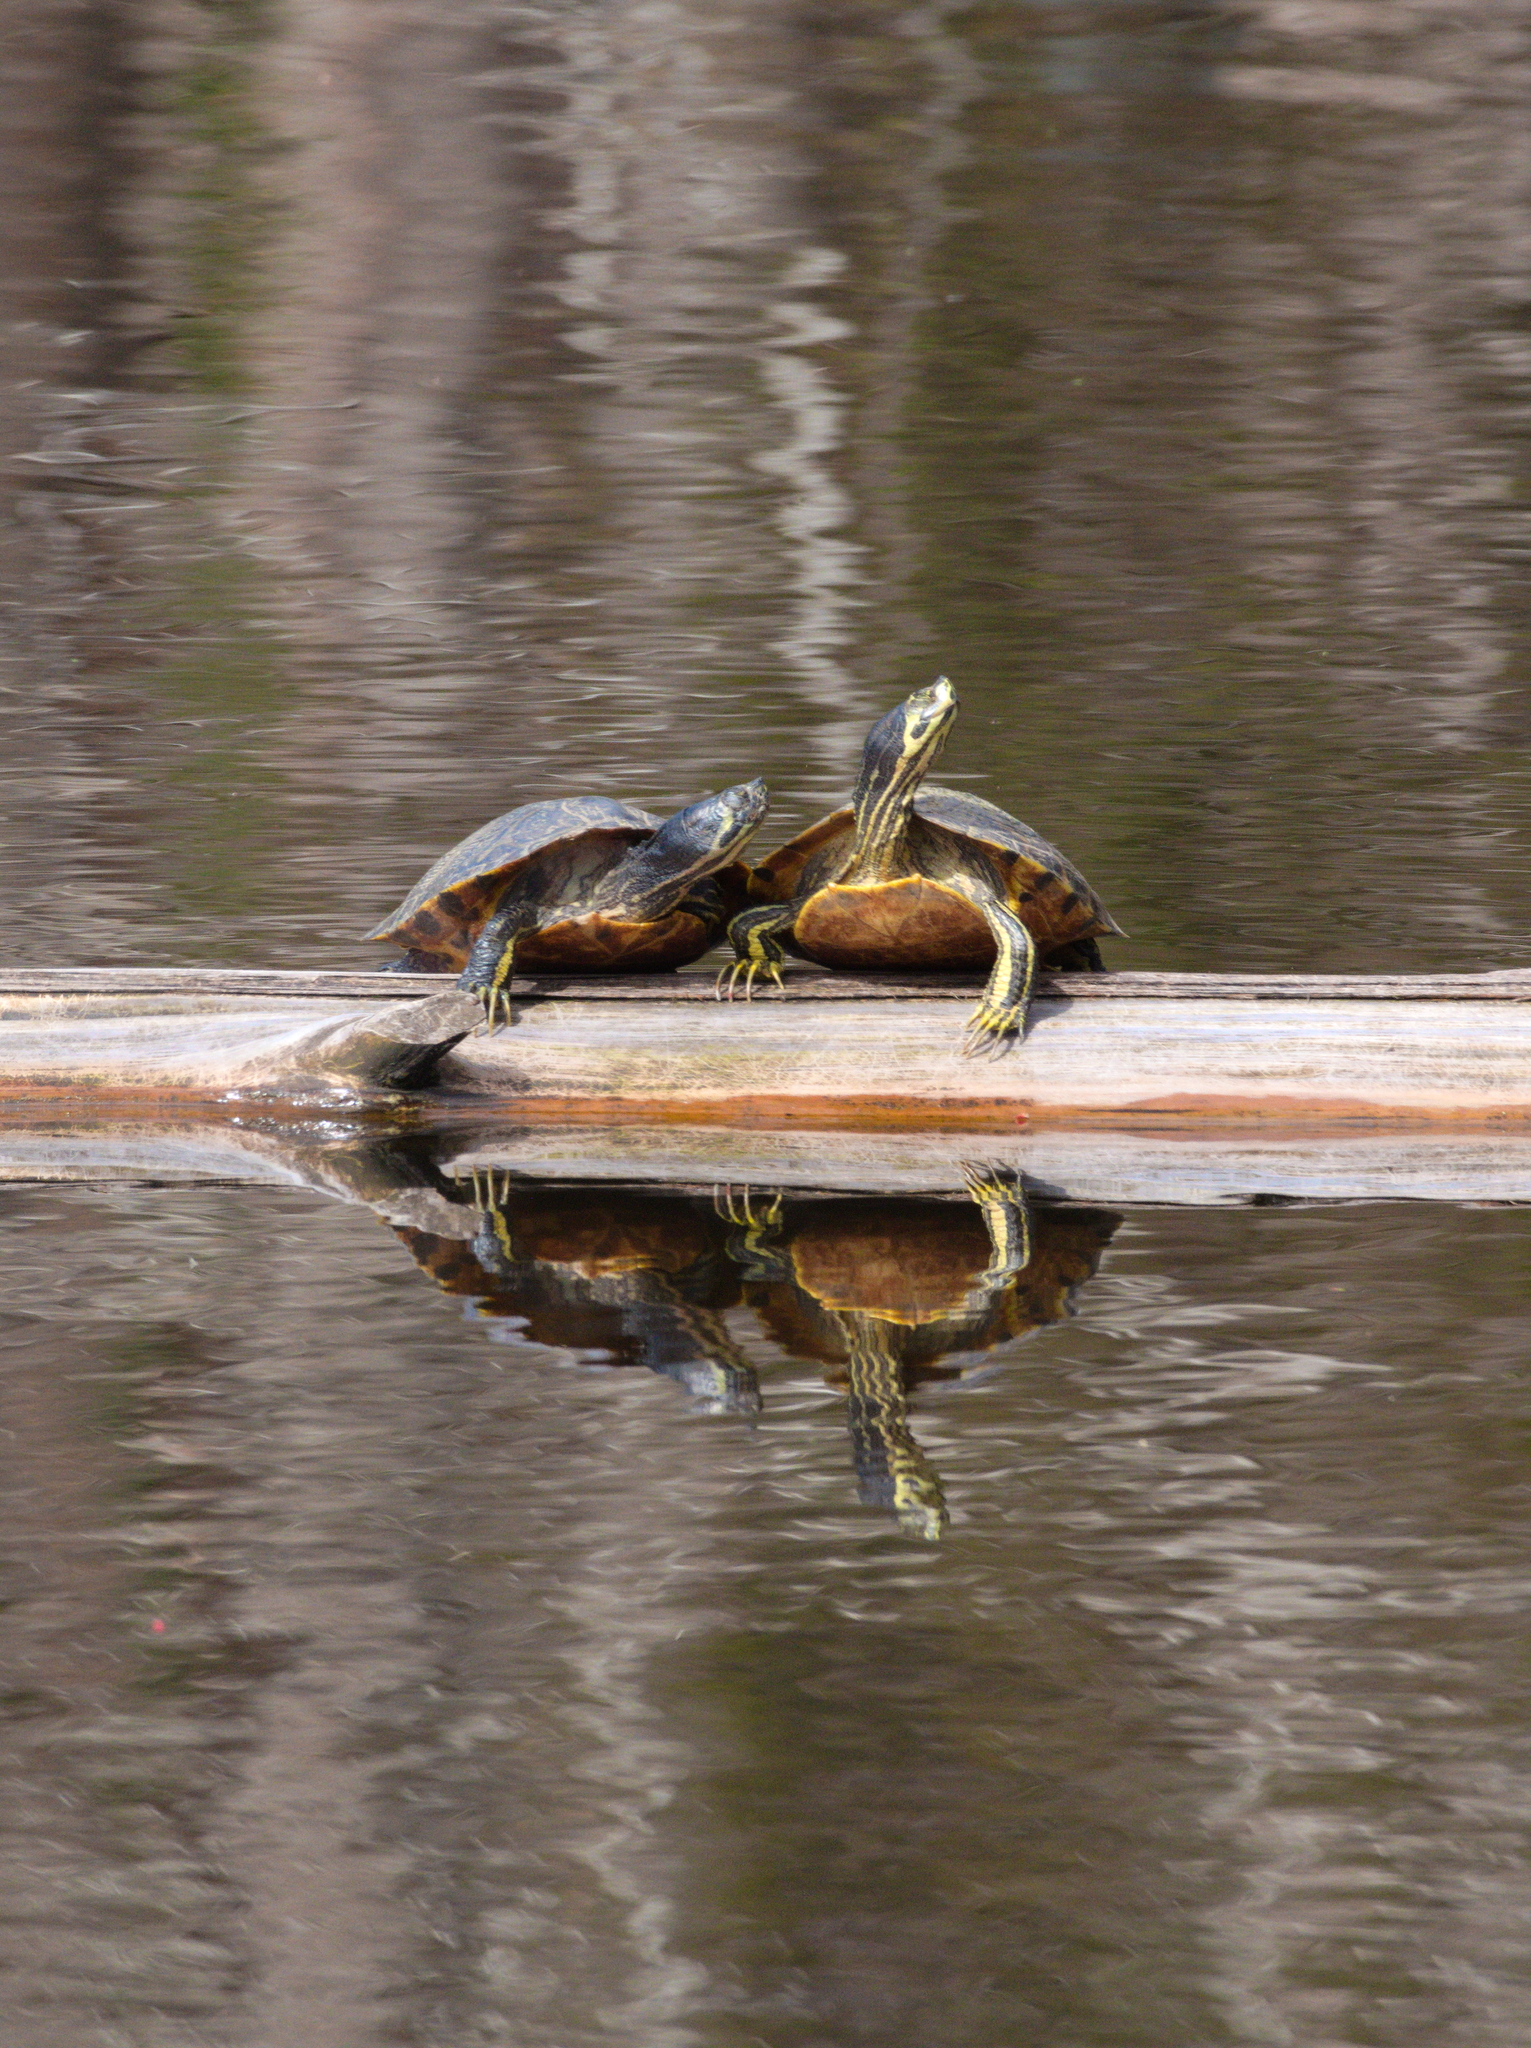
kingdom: Animalia
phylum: Chordata
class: Testudines
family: Emydidae
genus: Trachemys
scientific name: Trachemys scripta
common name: Slider
